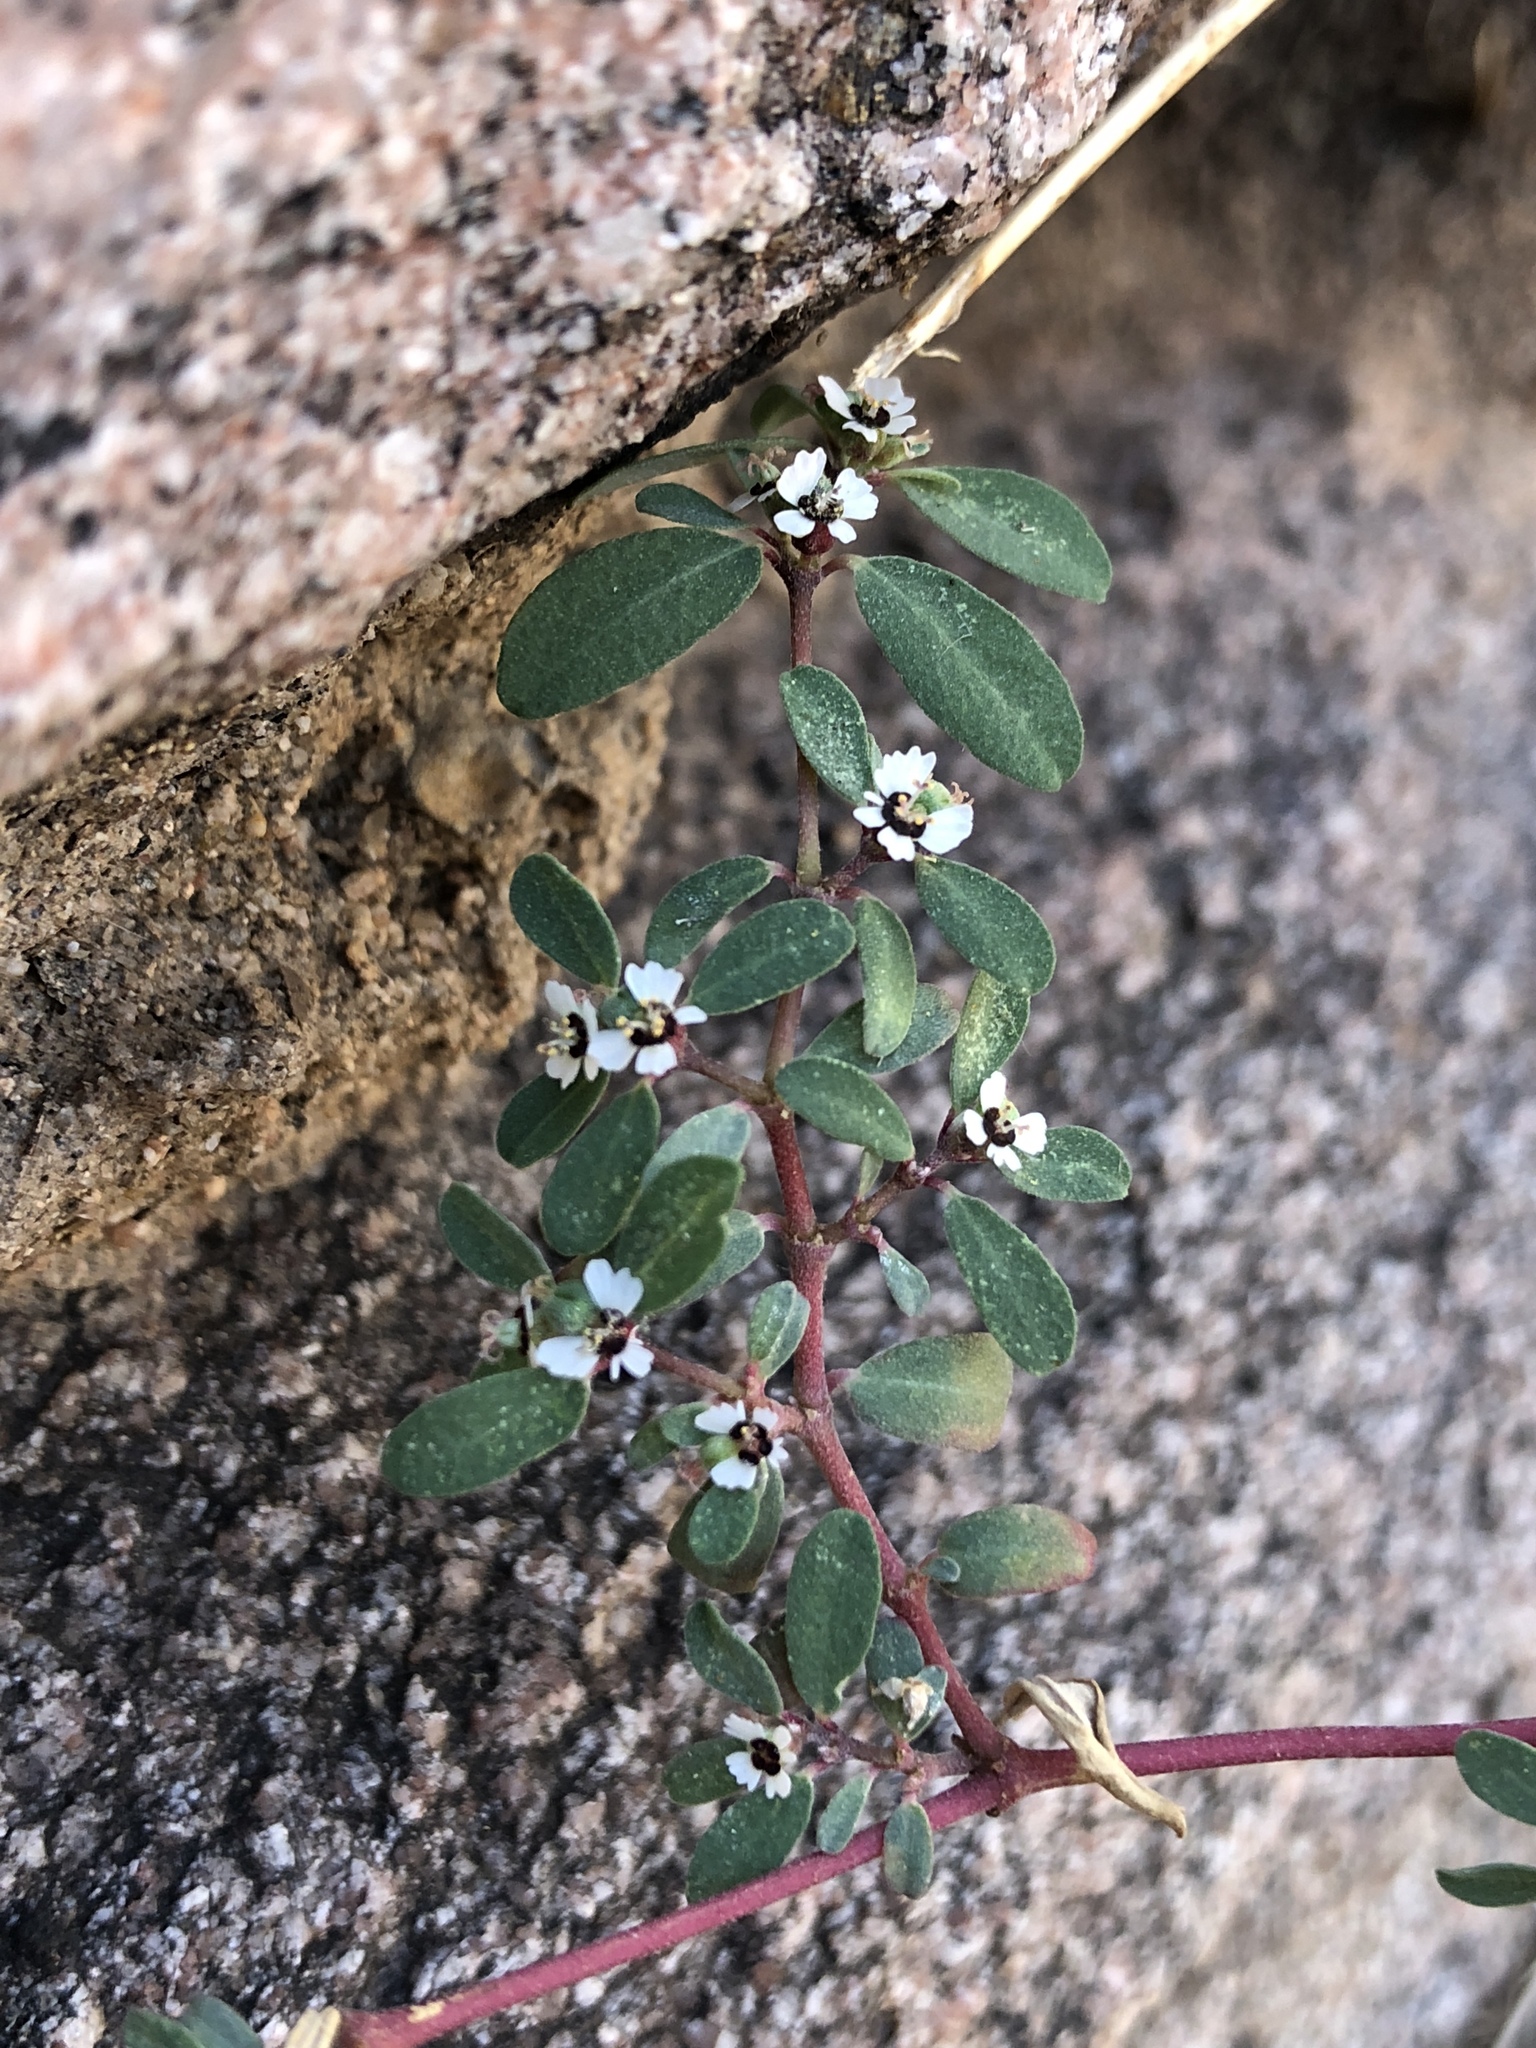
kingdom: Plantae
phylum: Tracheophyta
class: Magnoliopsida
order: Malpighiales
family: Euphorbiaceae
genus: Euphorbia
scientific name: Euphorbia pediculifera
